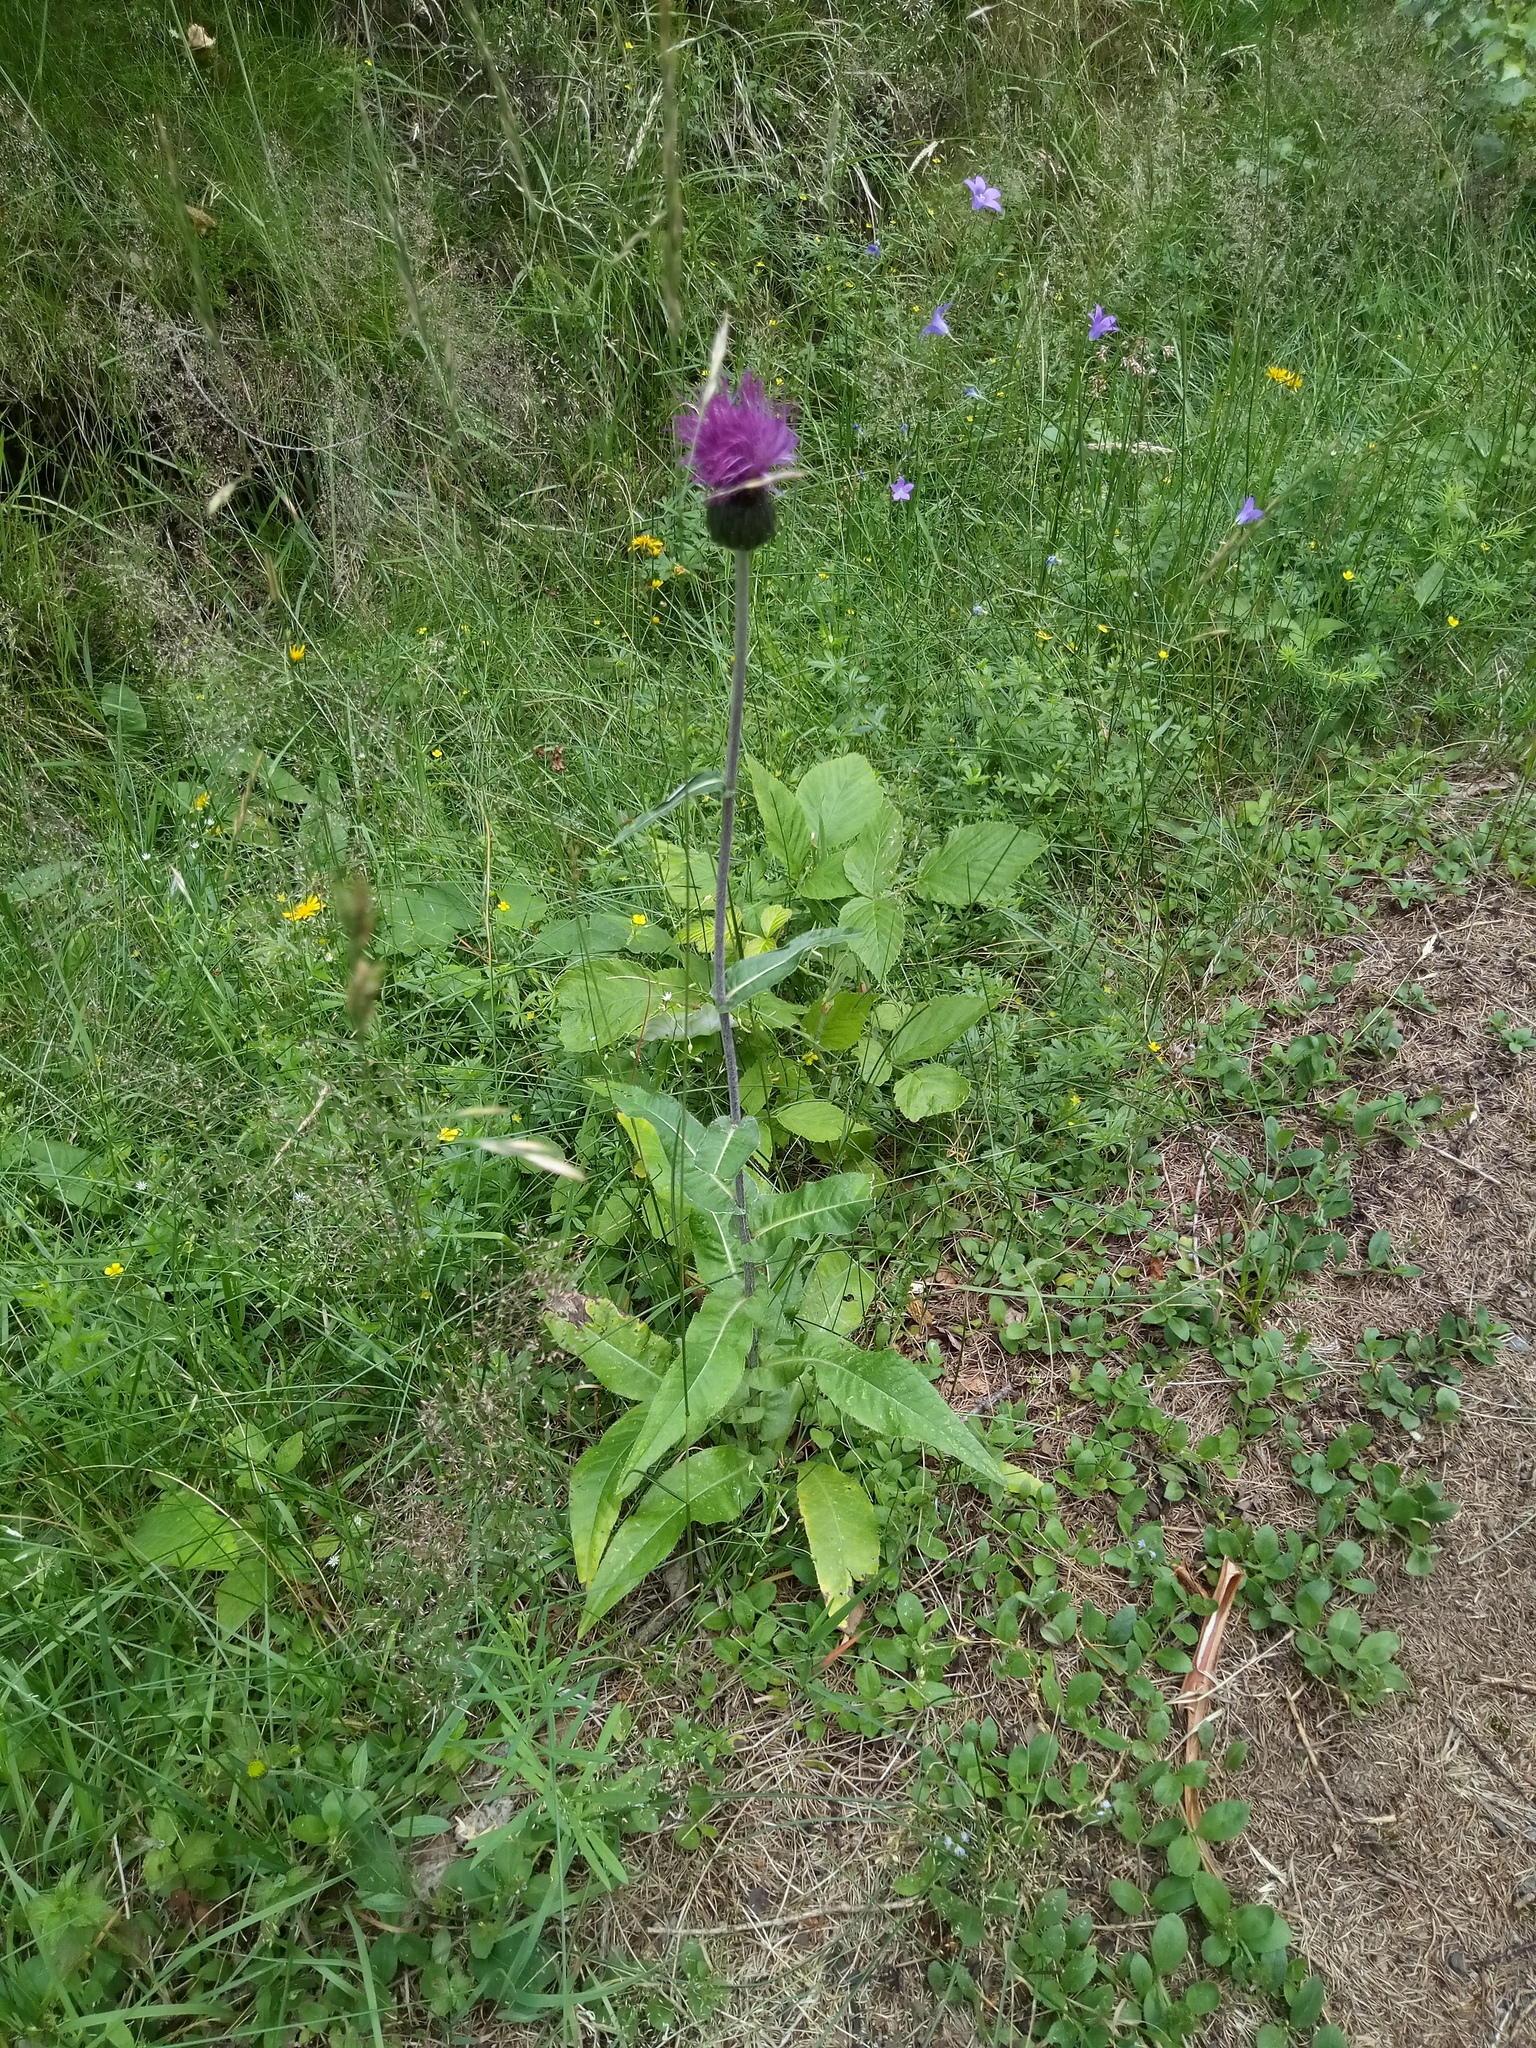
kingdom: Plantae
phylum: Tracheophyta
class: Magnoliopsida
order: Asterales
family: Asteraceae
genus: Cirsium
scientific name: Cirsium heterophyllum
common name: Melancholy thistle
